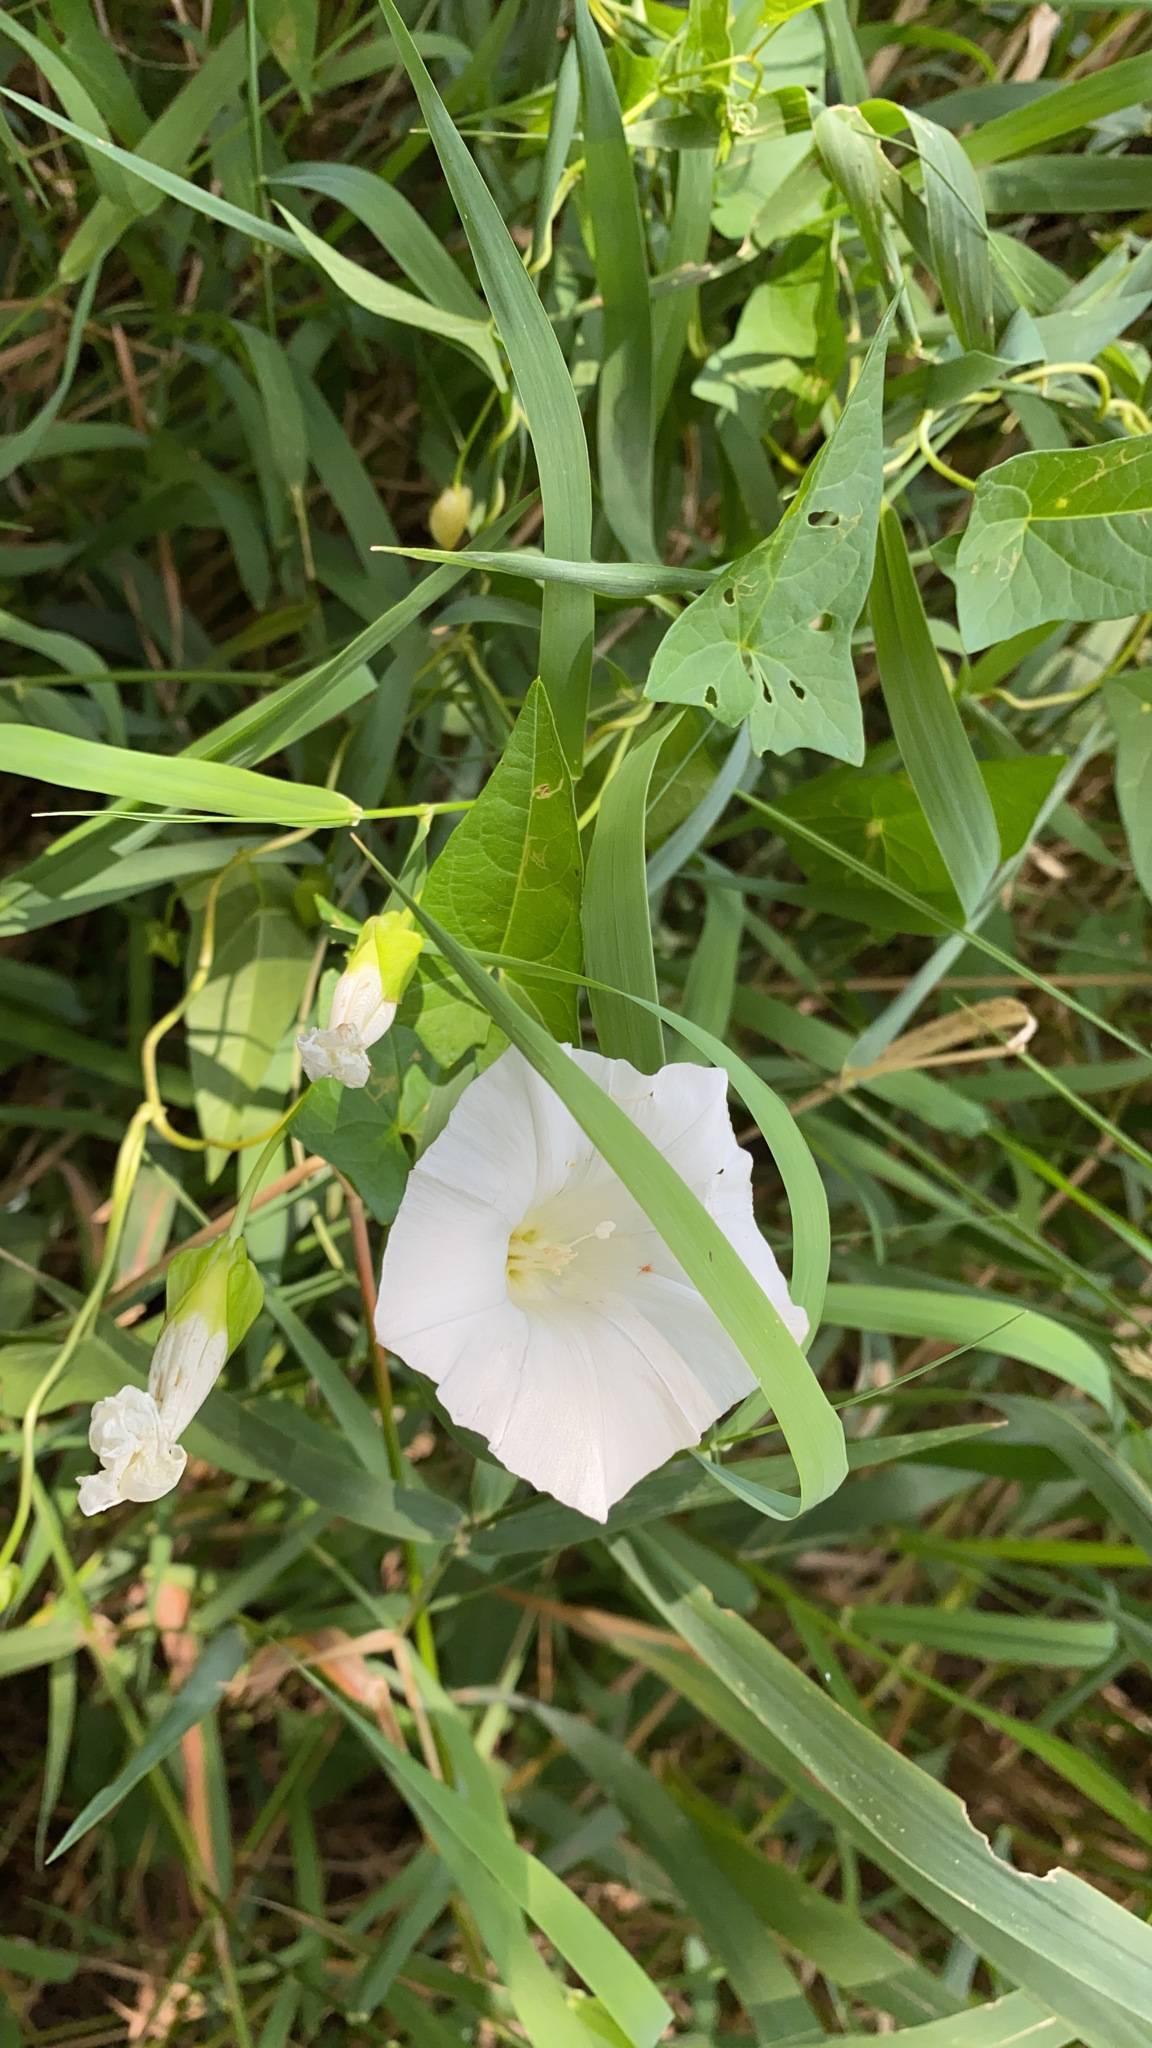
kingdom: Plantae
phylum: Tracheophyta
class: Magnoliopsida
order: Solanales
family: Convolvulaceae
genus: Calystegia
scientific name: Calystegia sepium
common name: Hedge bindweed
